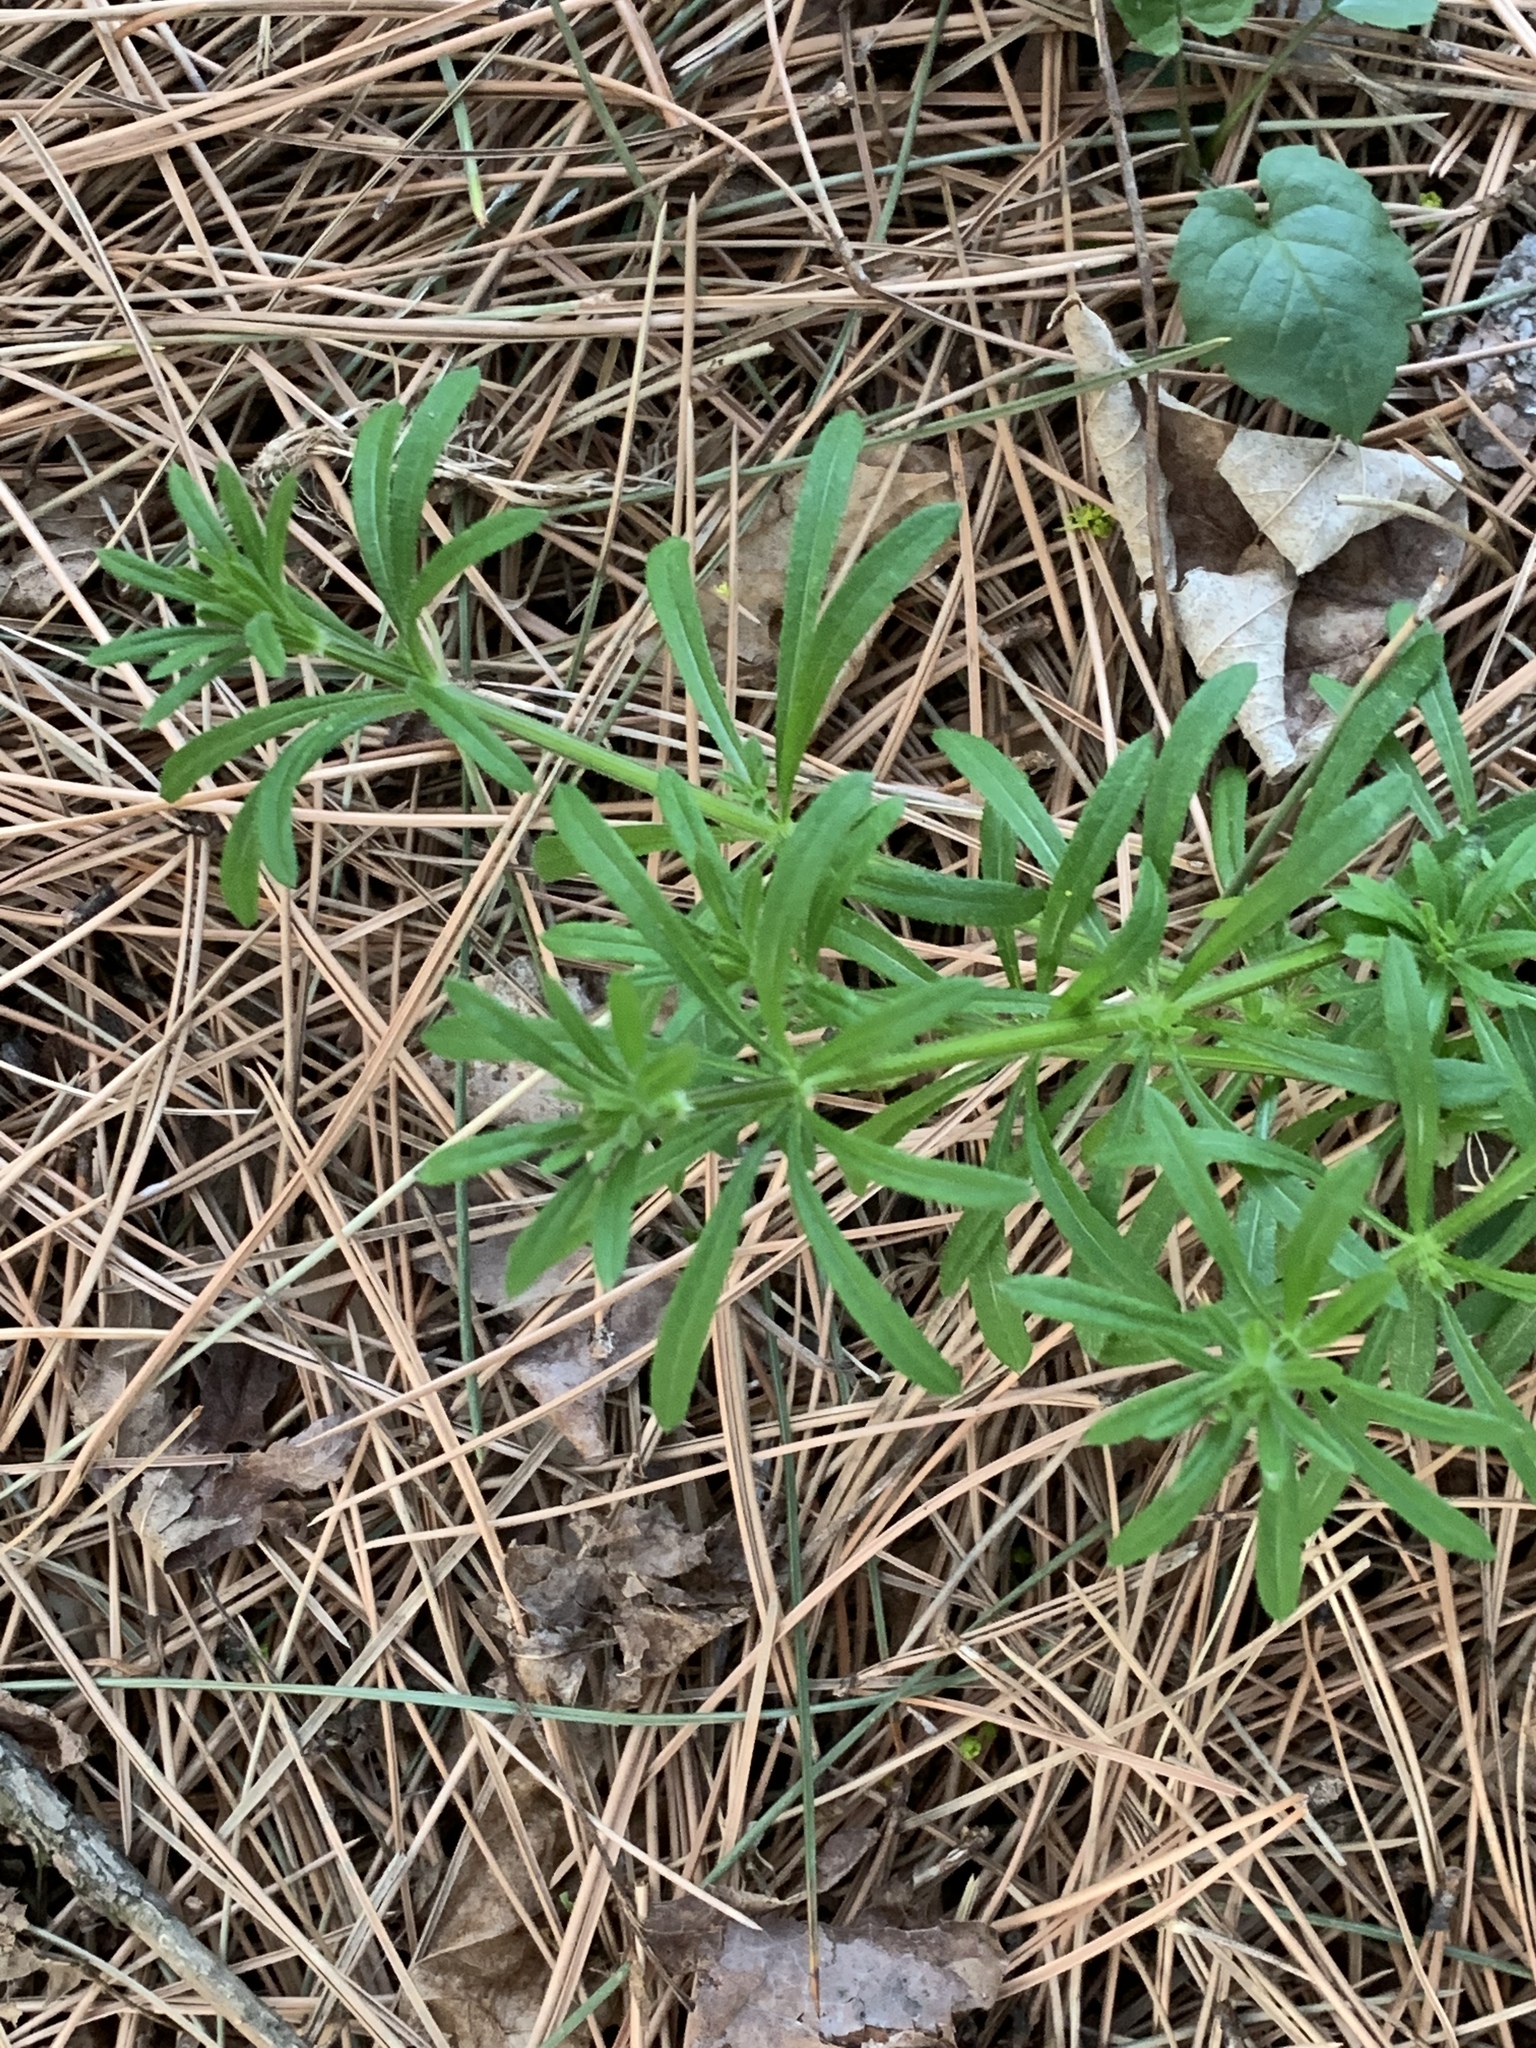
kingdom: Plantae
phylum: Tracheophyta
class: Magnoliopsida
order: Gentianales
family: Rubiaceae
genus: Galium
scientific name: Galium aparine
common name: Cleavers
